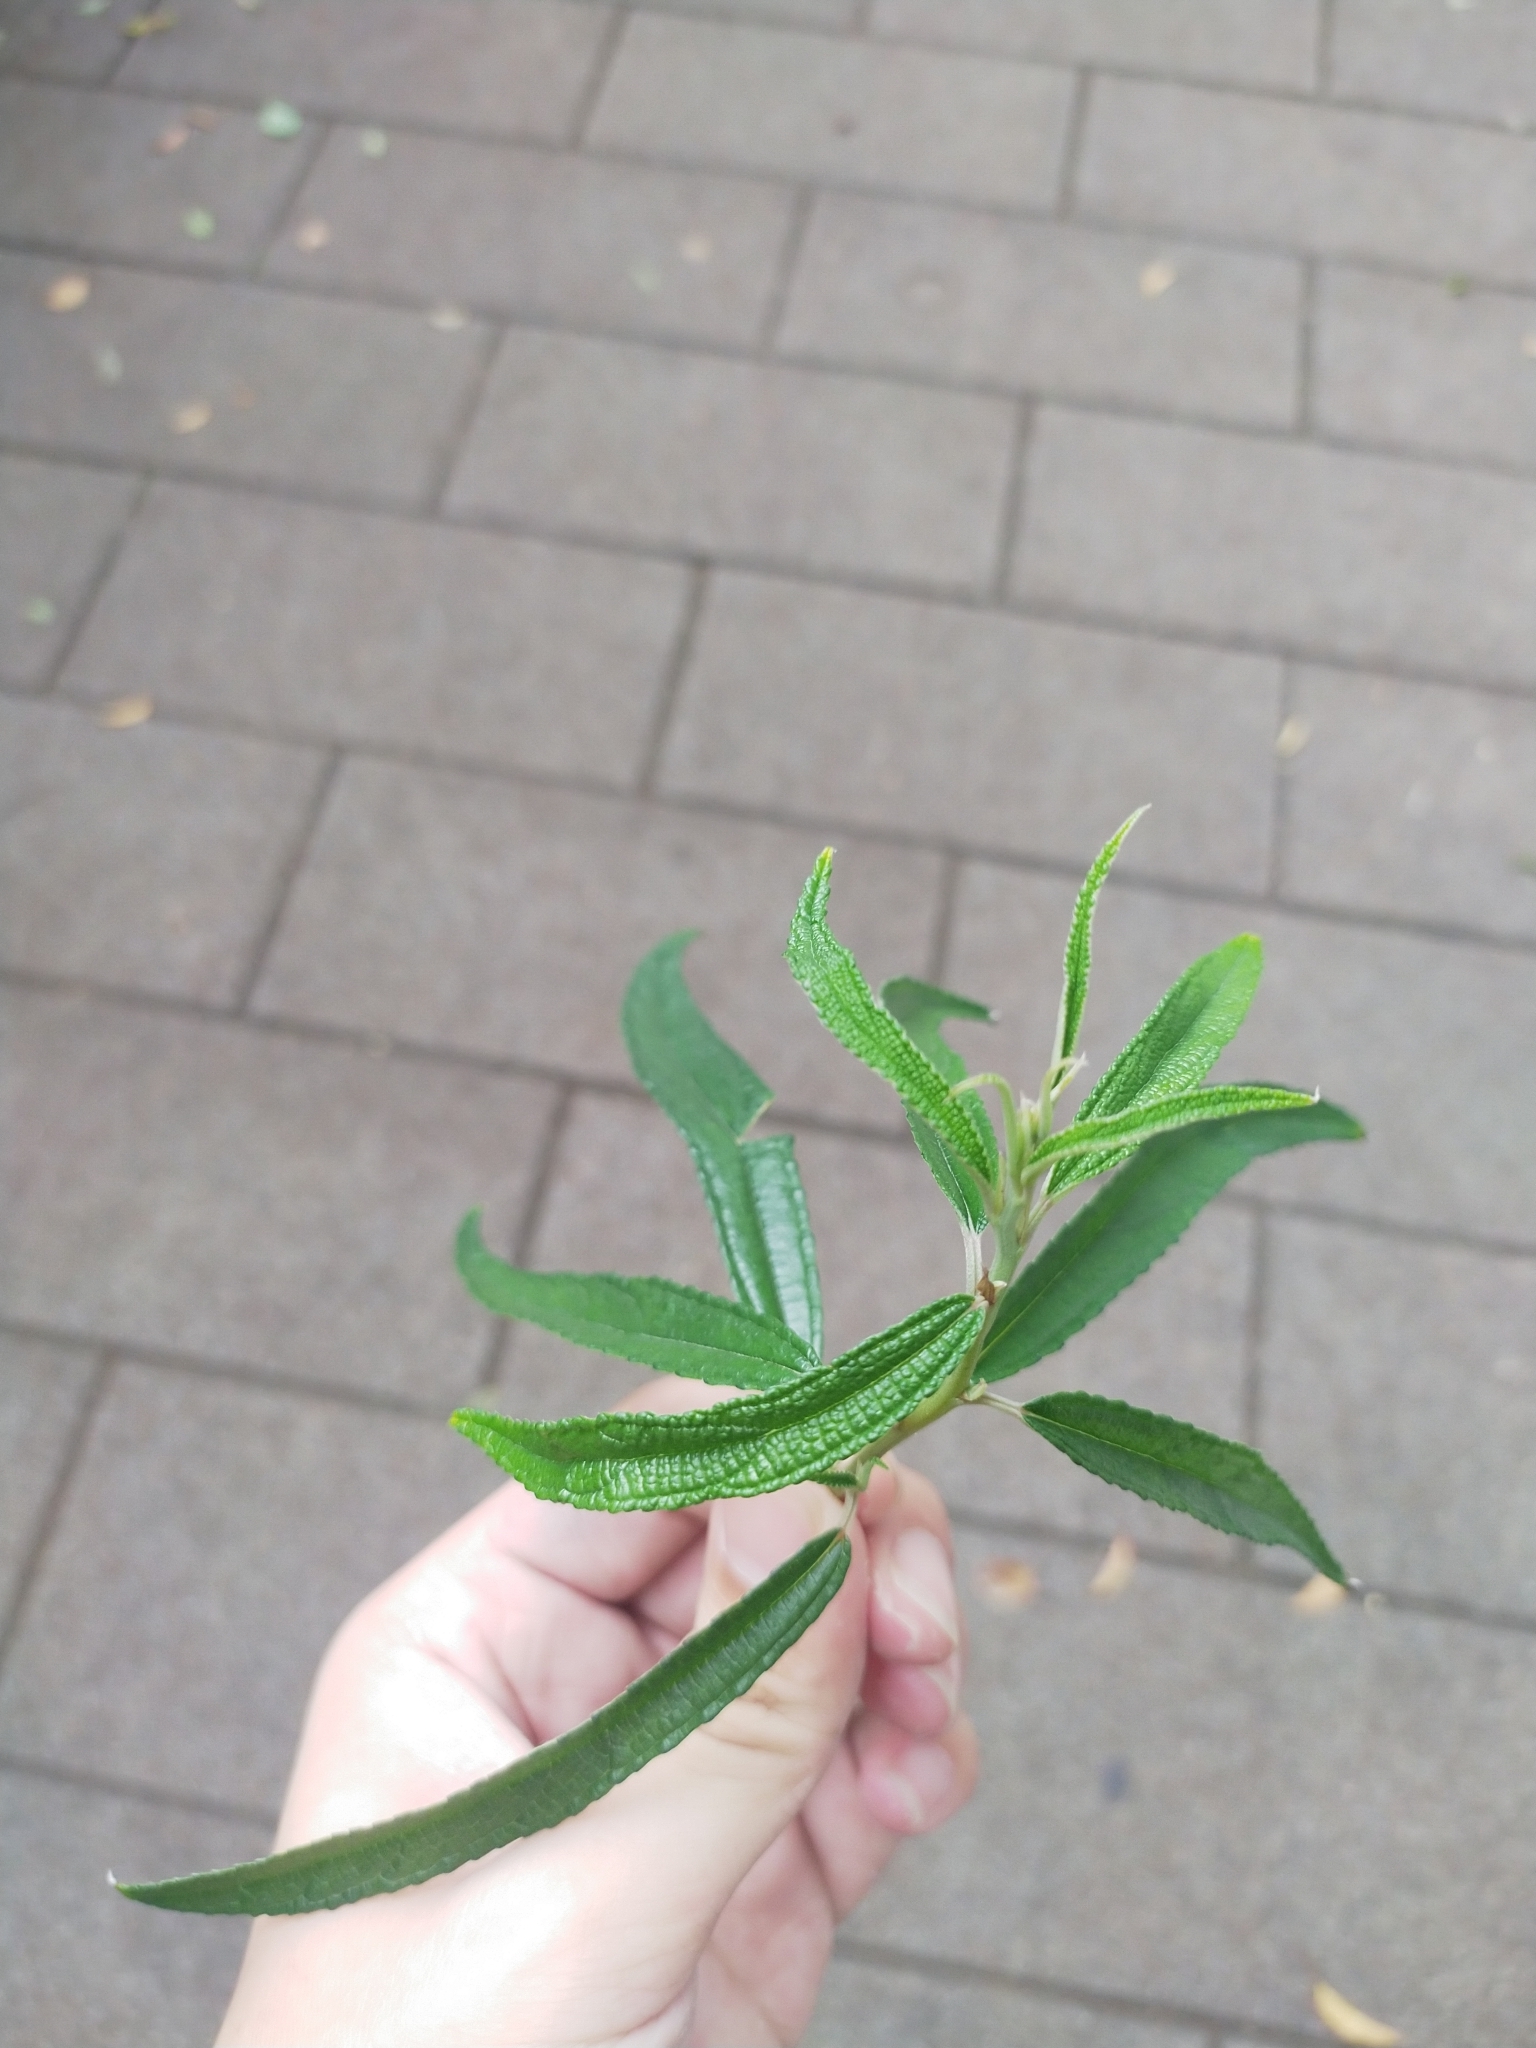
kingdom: Plantae
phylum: Tracheophyta
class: Magnoliopsida
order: Rosales
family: Urticaceae
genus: Debregeasia
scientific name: Debregeasia orientalis
